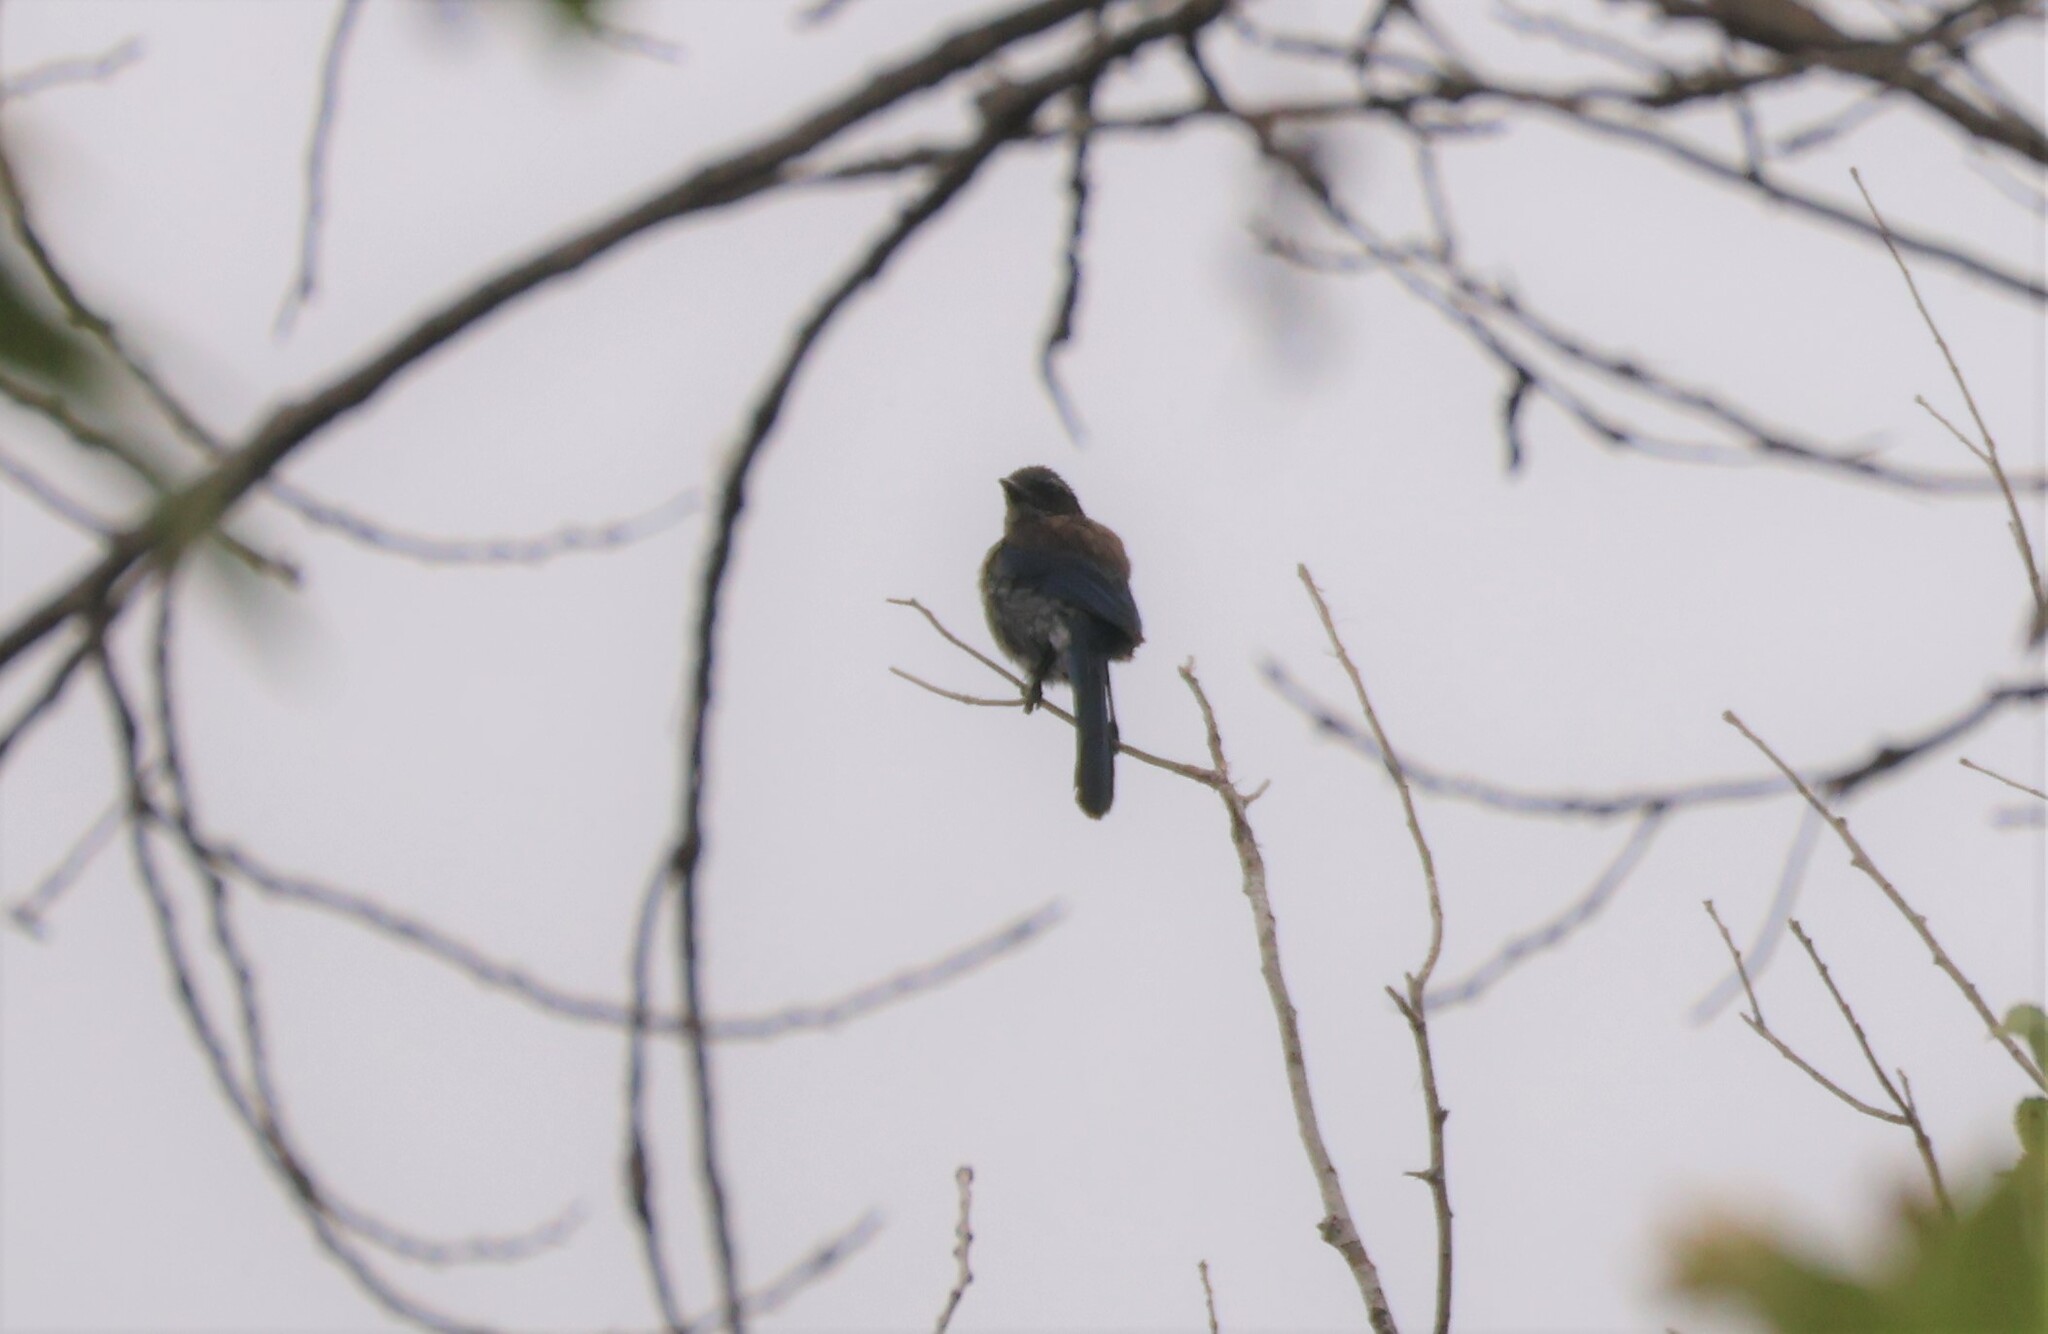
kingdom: Animalia
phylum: Chordata
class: Aves
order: Passeriformes
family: Corvidae
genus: Aphelocoma
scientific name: Aphelocoma californica
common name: California scrub-jay
